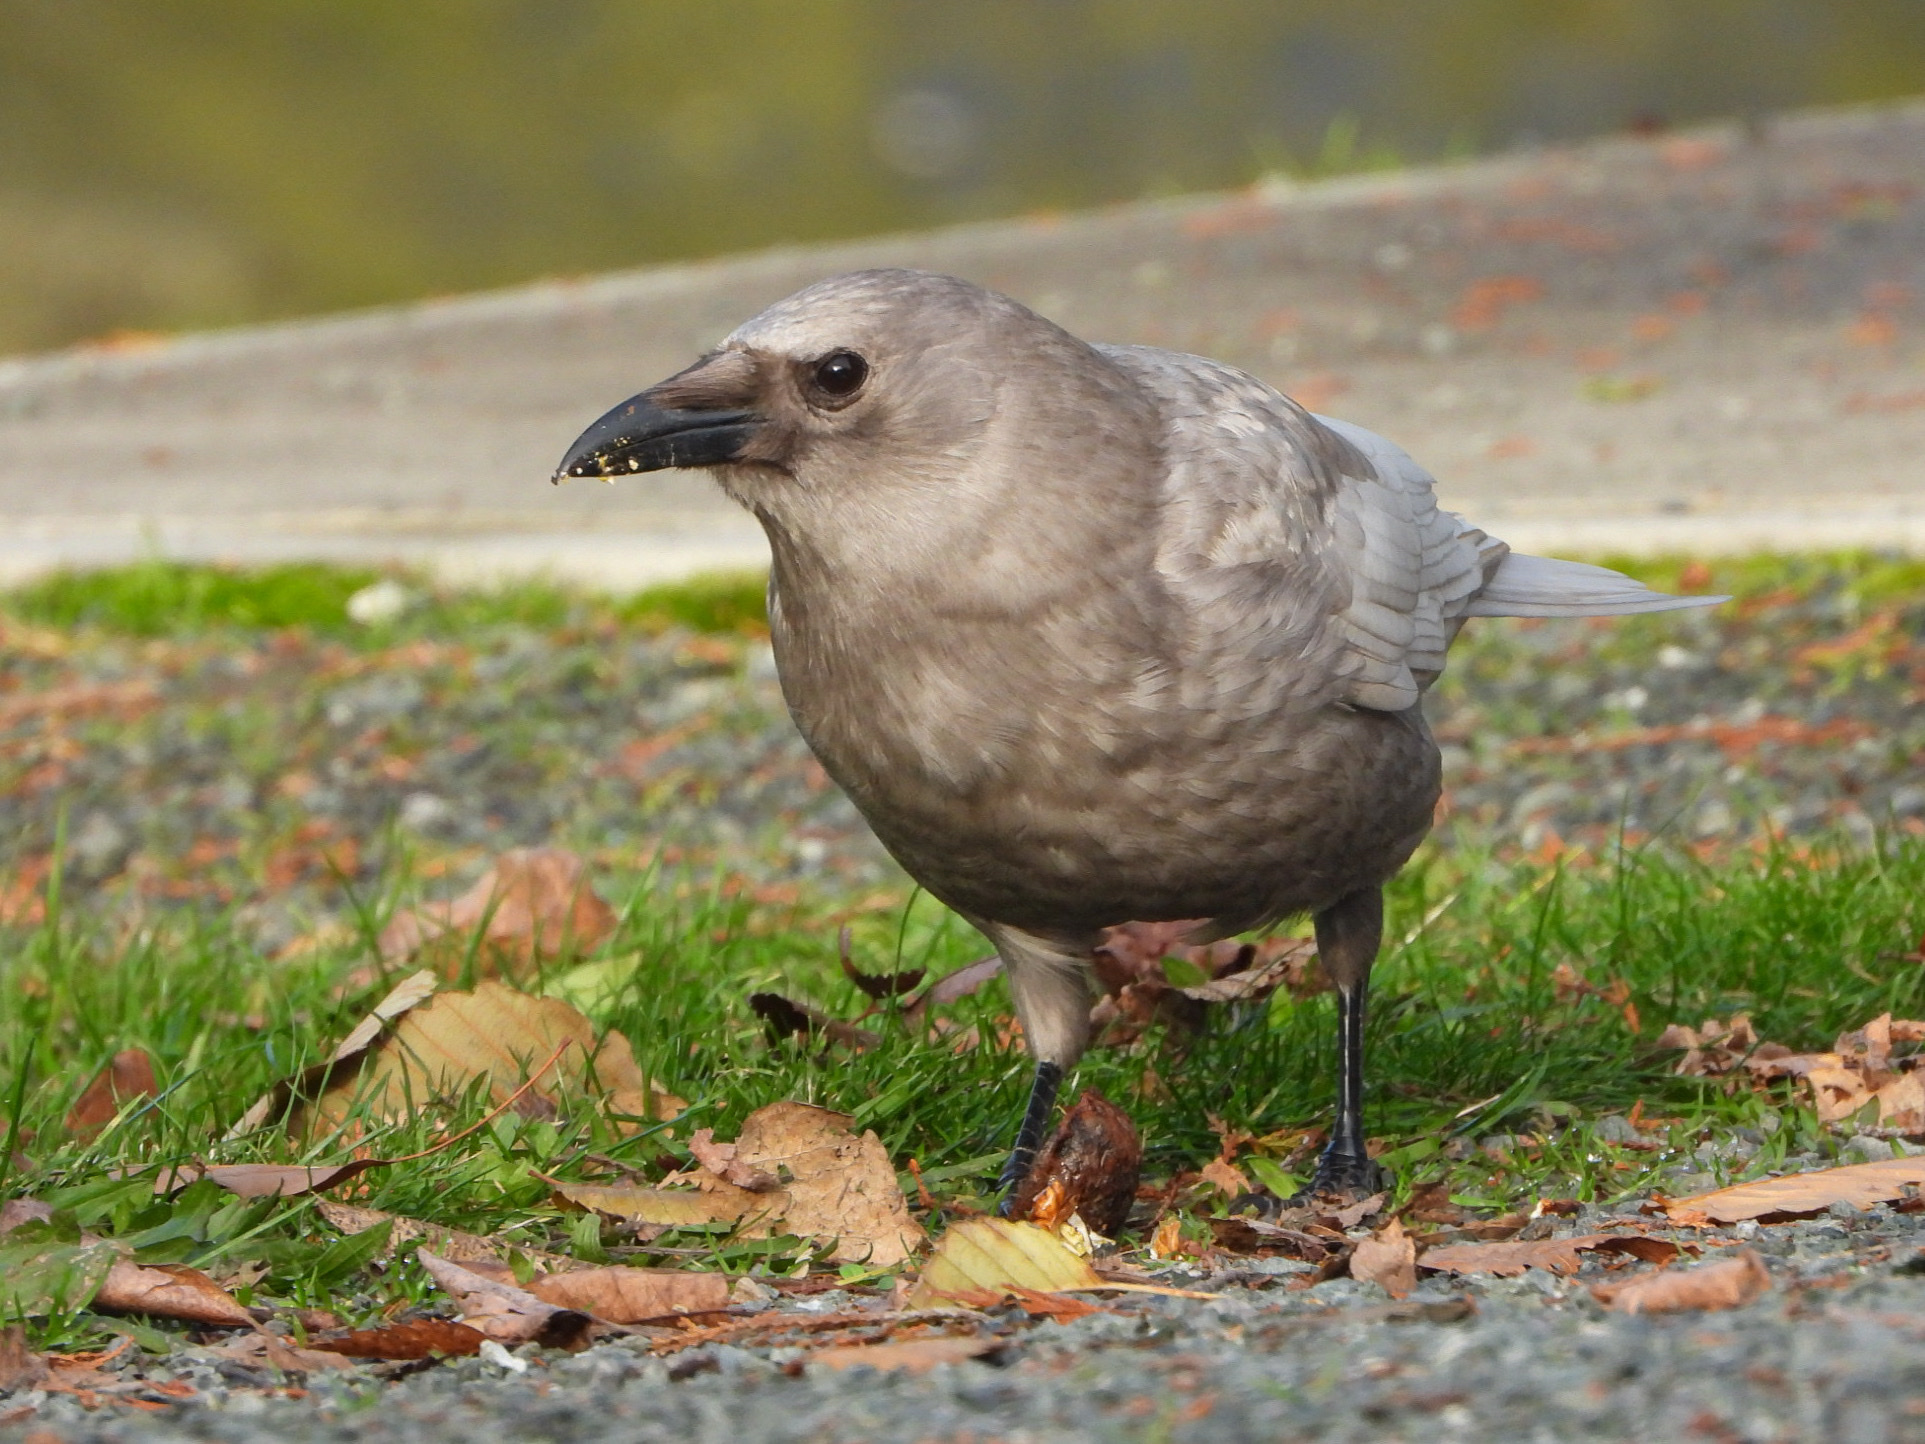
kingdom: Animalia
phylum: Chordata
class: Aves
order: Passeriformes
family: Corvidae
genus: Corvus
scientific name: Corvus brachyrhynchos
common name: American crow
